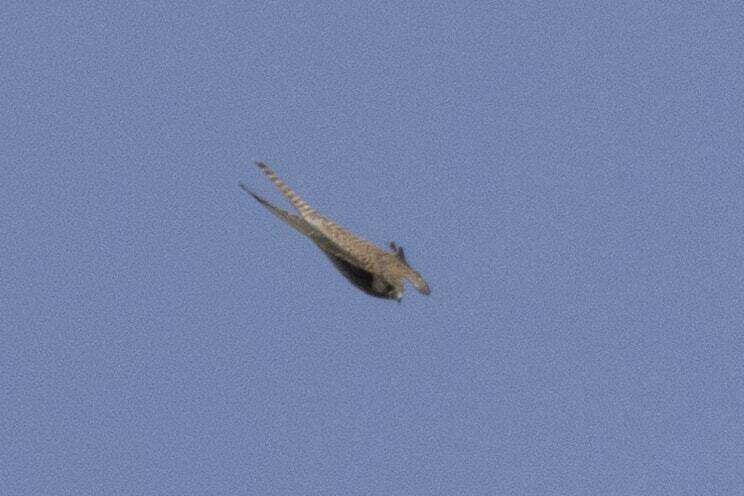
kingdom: Animalia
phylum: Chordata
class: Aves
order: Falconiformes
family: Falconidae
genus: Falco
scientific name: Falco tinnunculus
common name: Common kestrel
